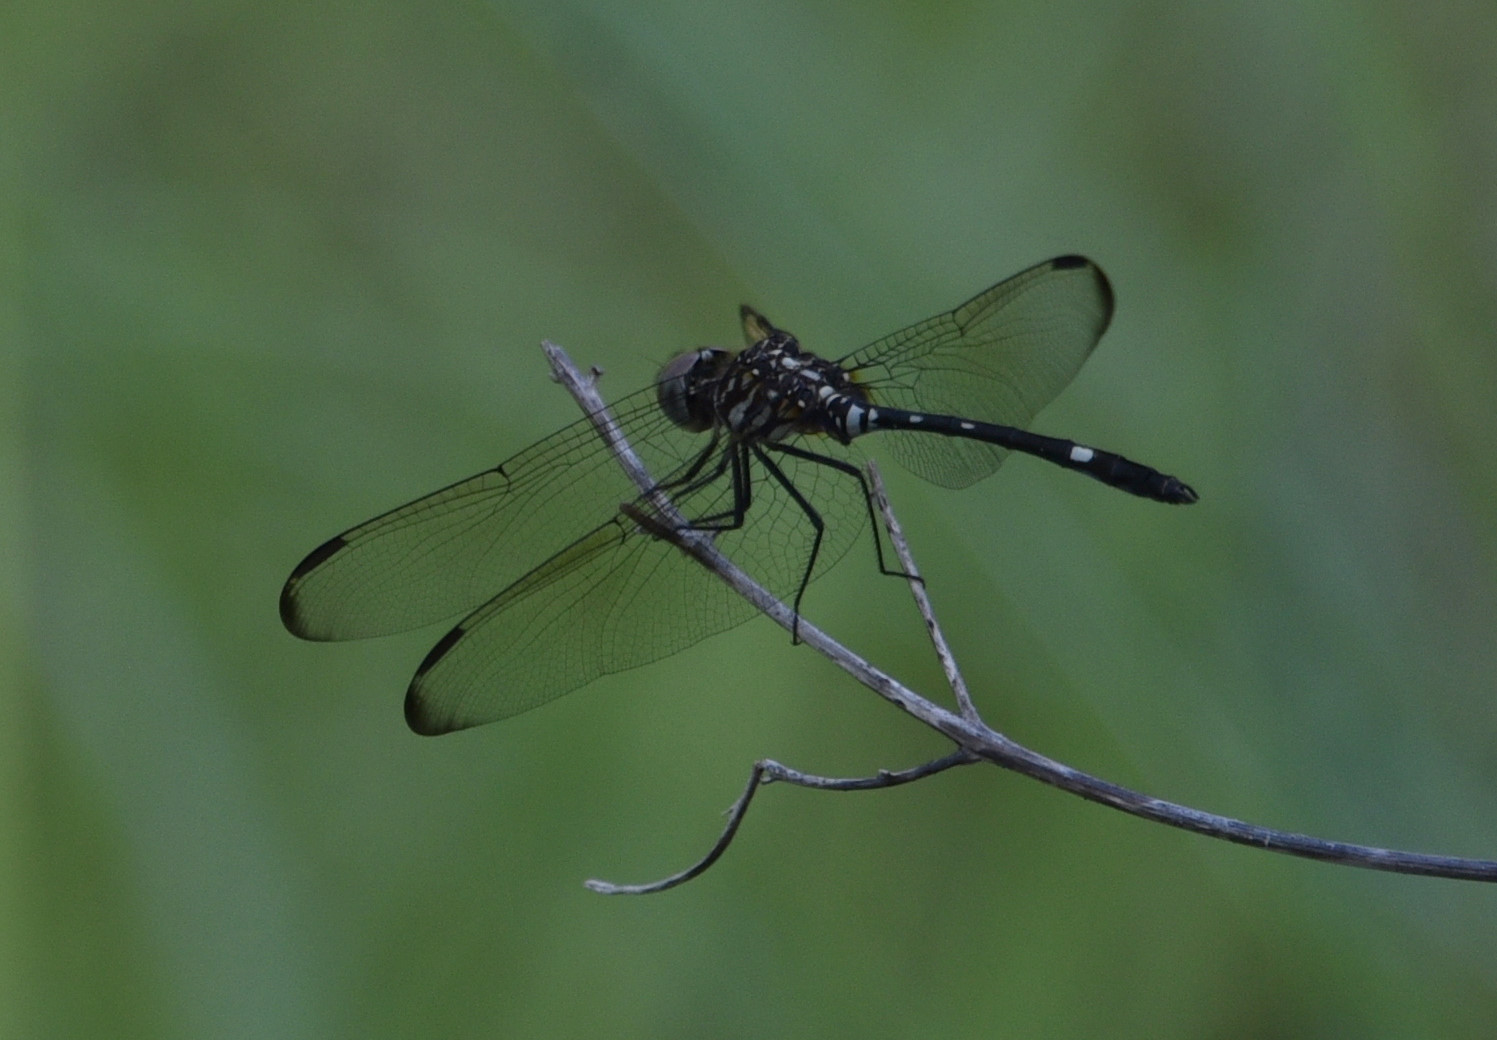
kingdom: Animalia
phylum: Arthropoda
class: Insecta
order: Odonata
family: Libellulidae
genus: Dythemis
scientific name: Dythemis velox
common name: Swift setwing
